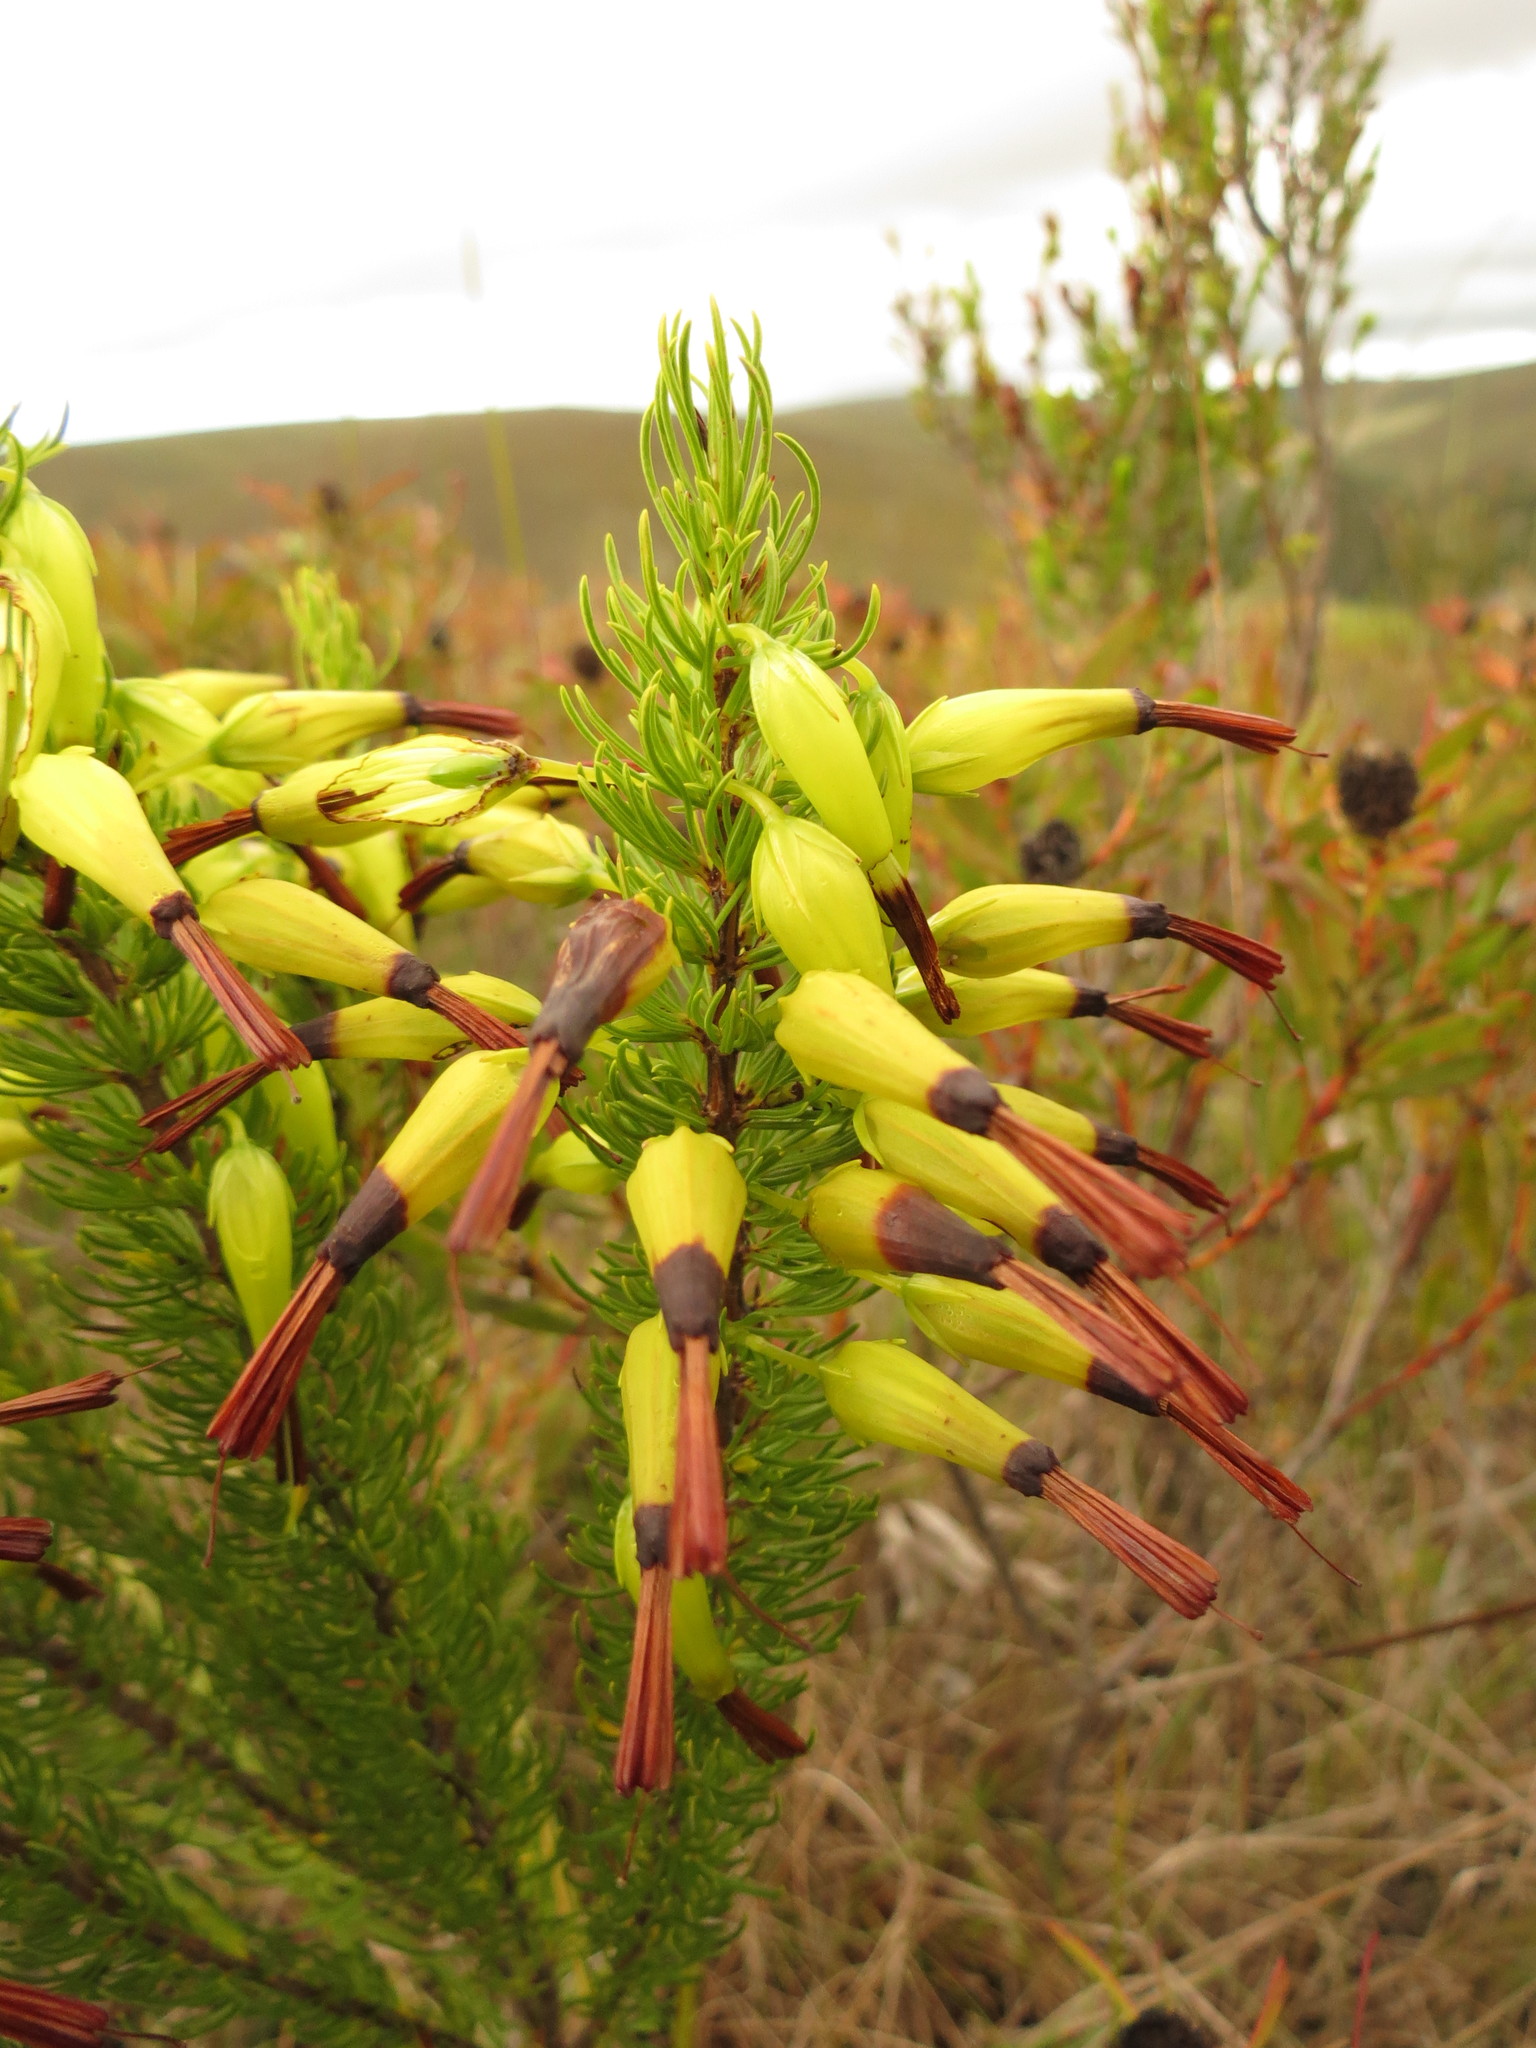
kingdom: Plantae
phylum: Tracheophyta
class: Magnoliopsida
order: Ericales
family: Ericaceae
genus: Erica
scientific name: Erica plukenetii
